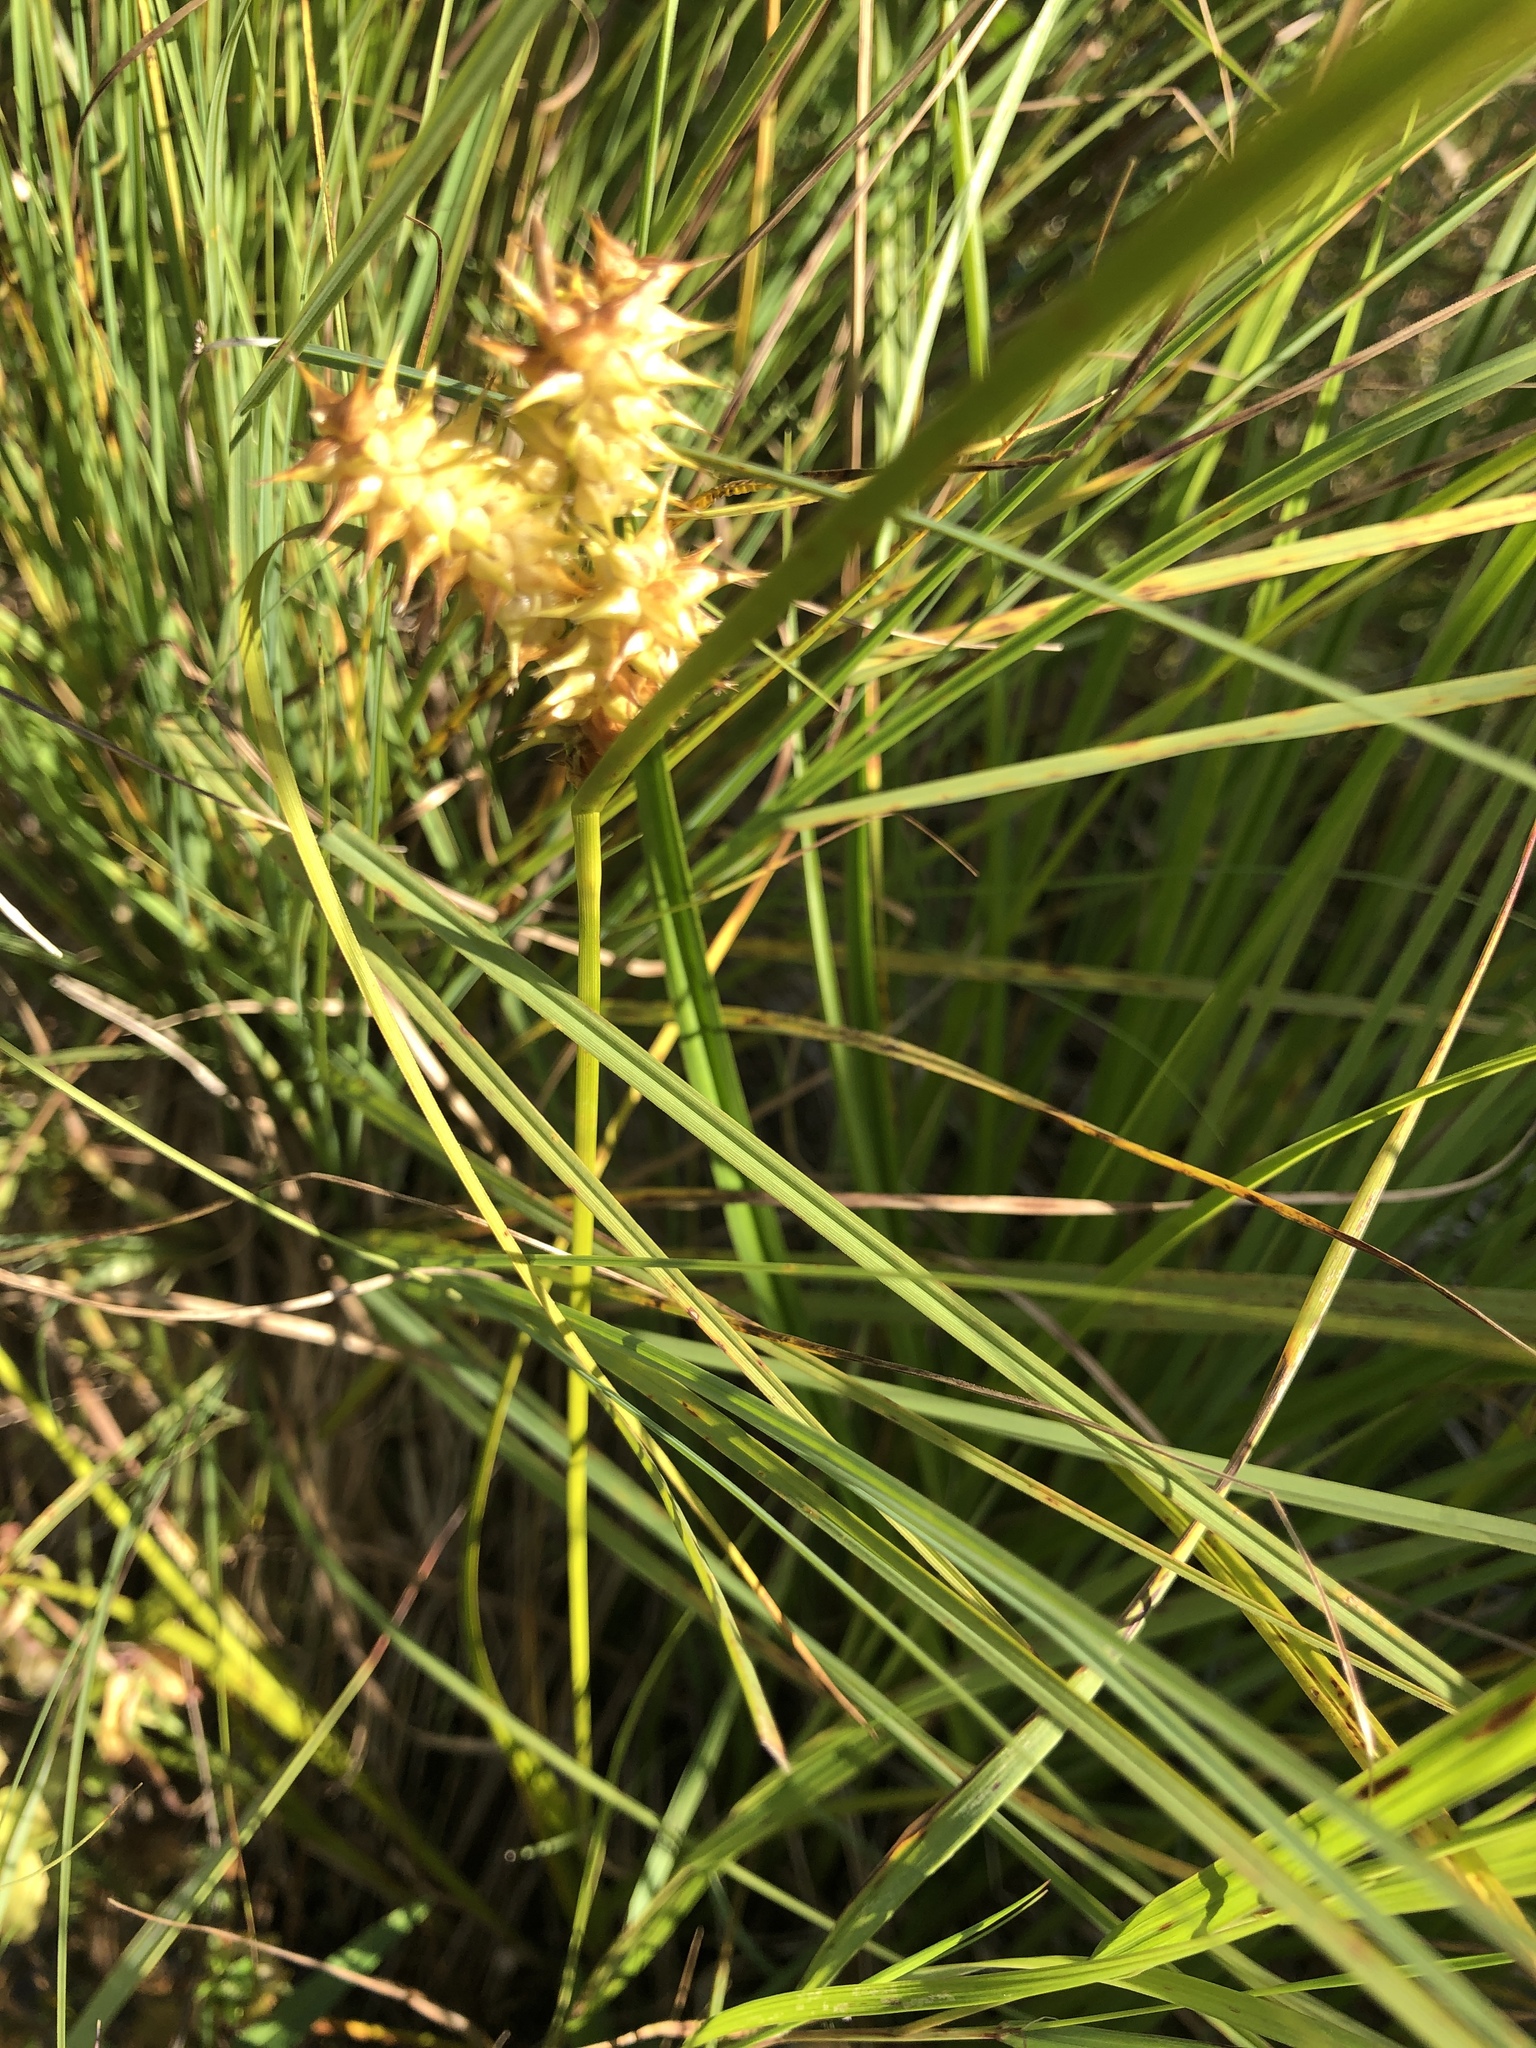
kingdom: Plantae
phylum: Tracheophyta
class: Liliopsida
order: Poales
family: Cyperaceae
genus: Carex
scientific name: Carex retrorsa
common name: Knot-sheath sedge
